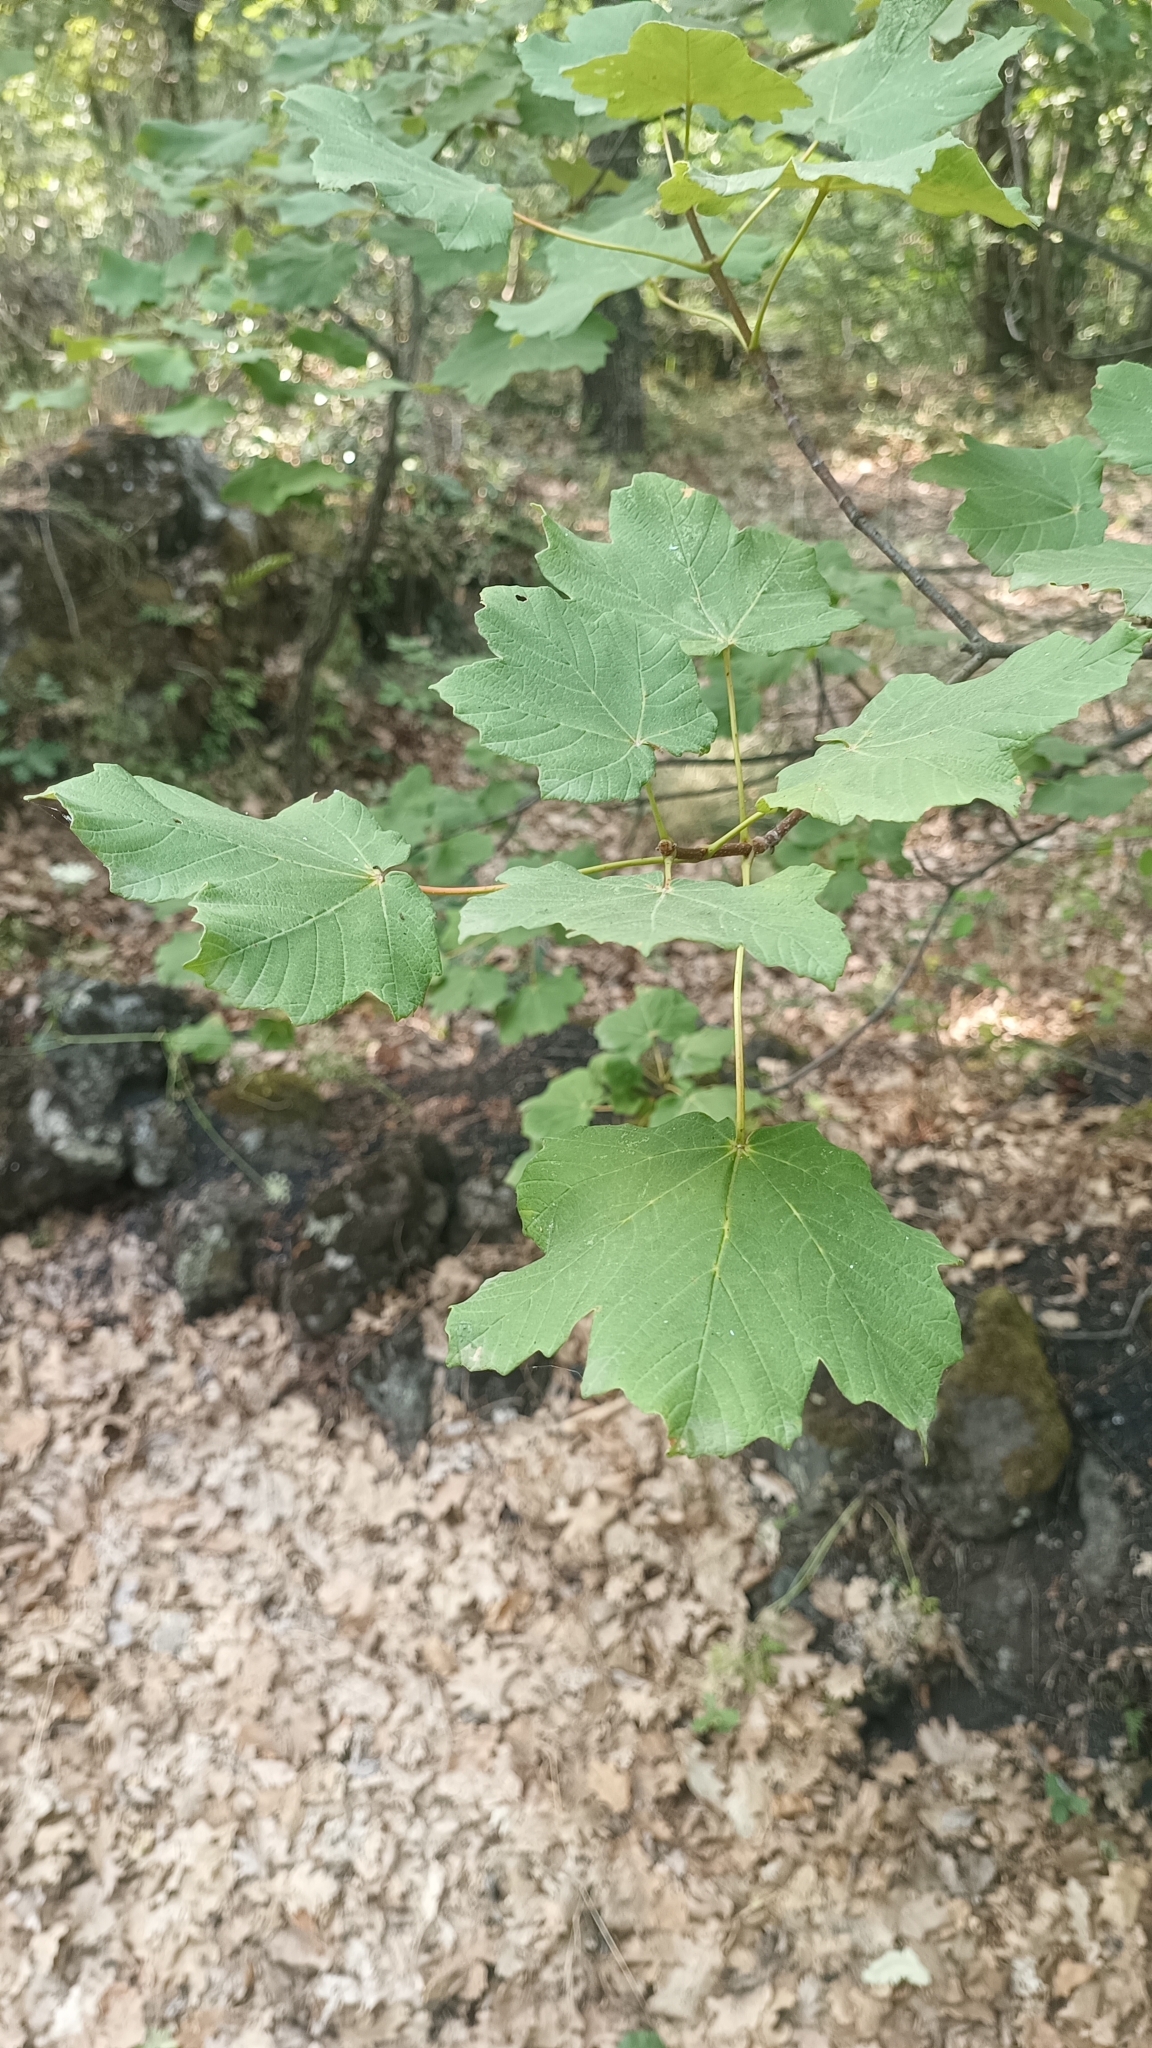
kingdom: Plantae
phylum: Tracheophyta
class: Magnoliopsida
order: Sapindales
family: Sapindaceae
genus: Acer
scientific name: Acer opalus
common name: Italian maple
